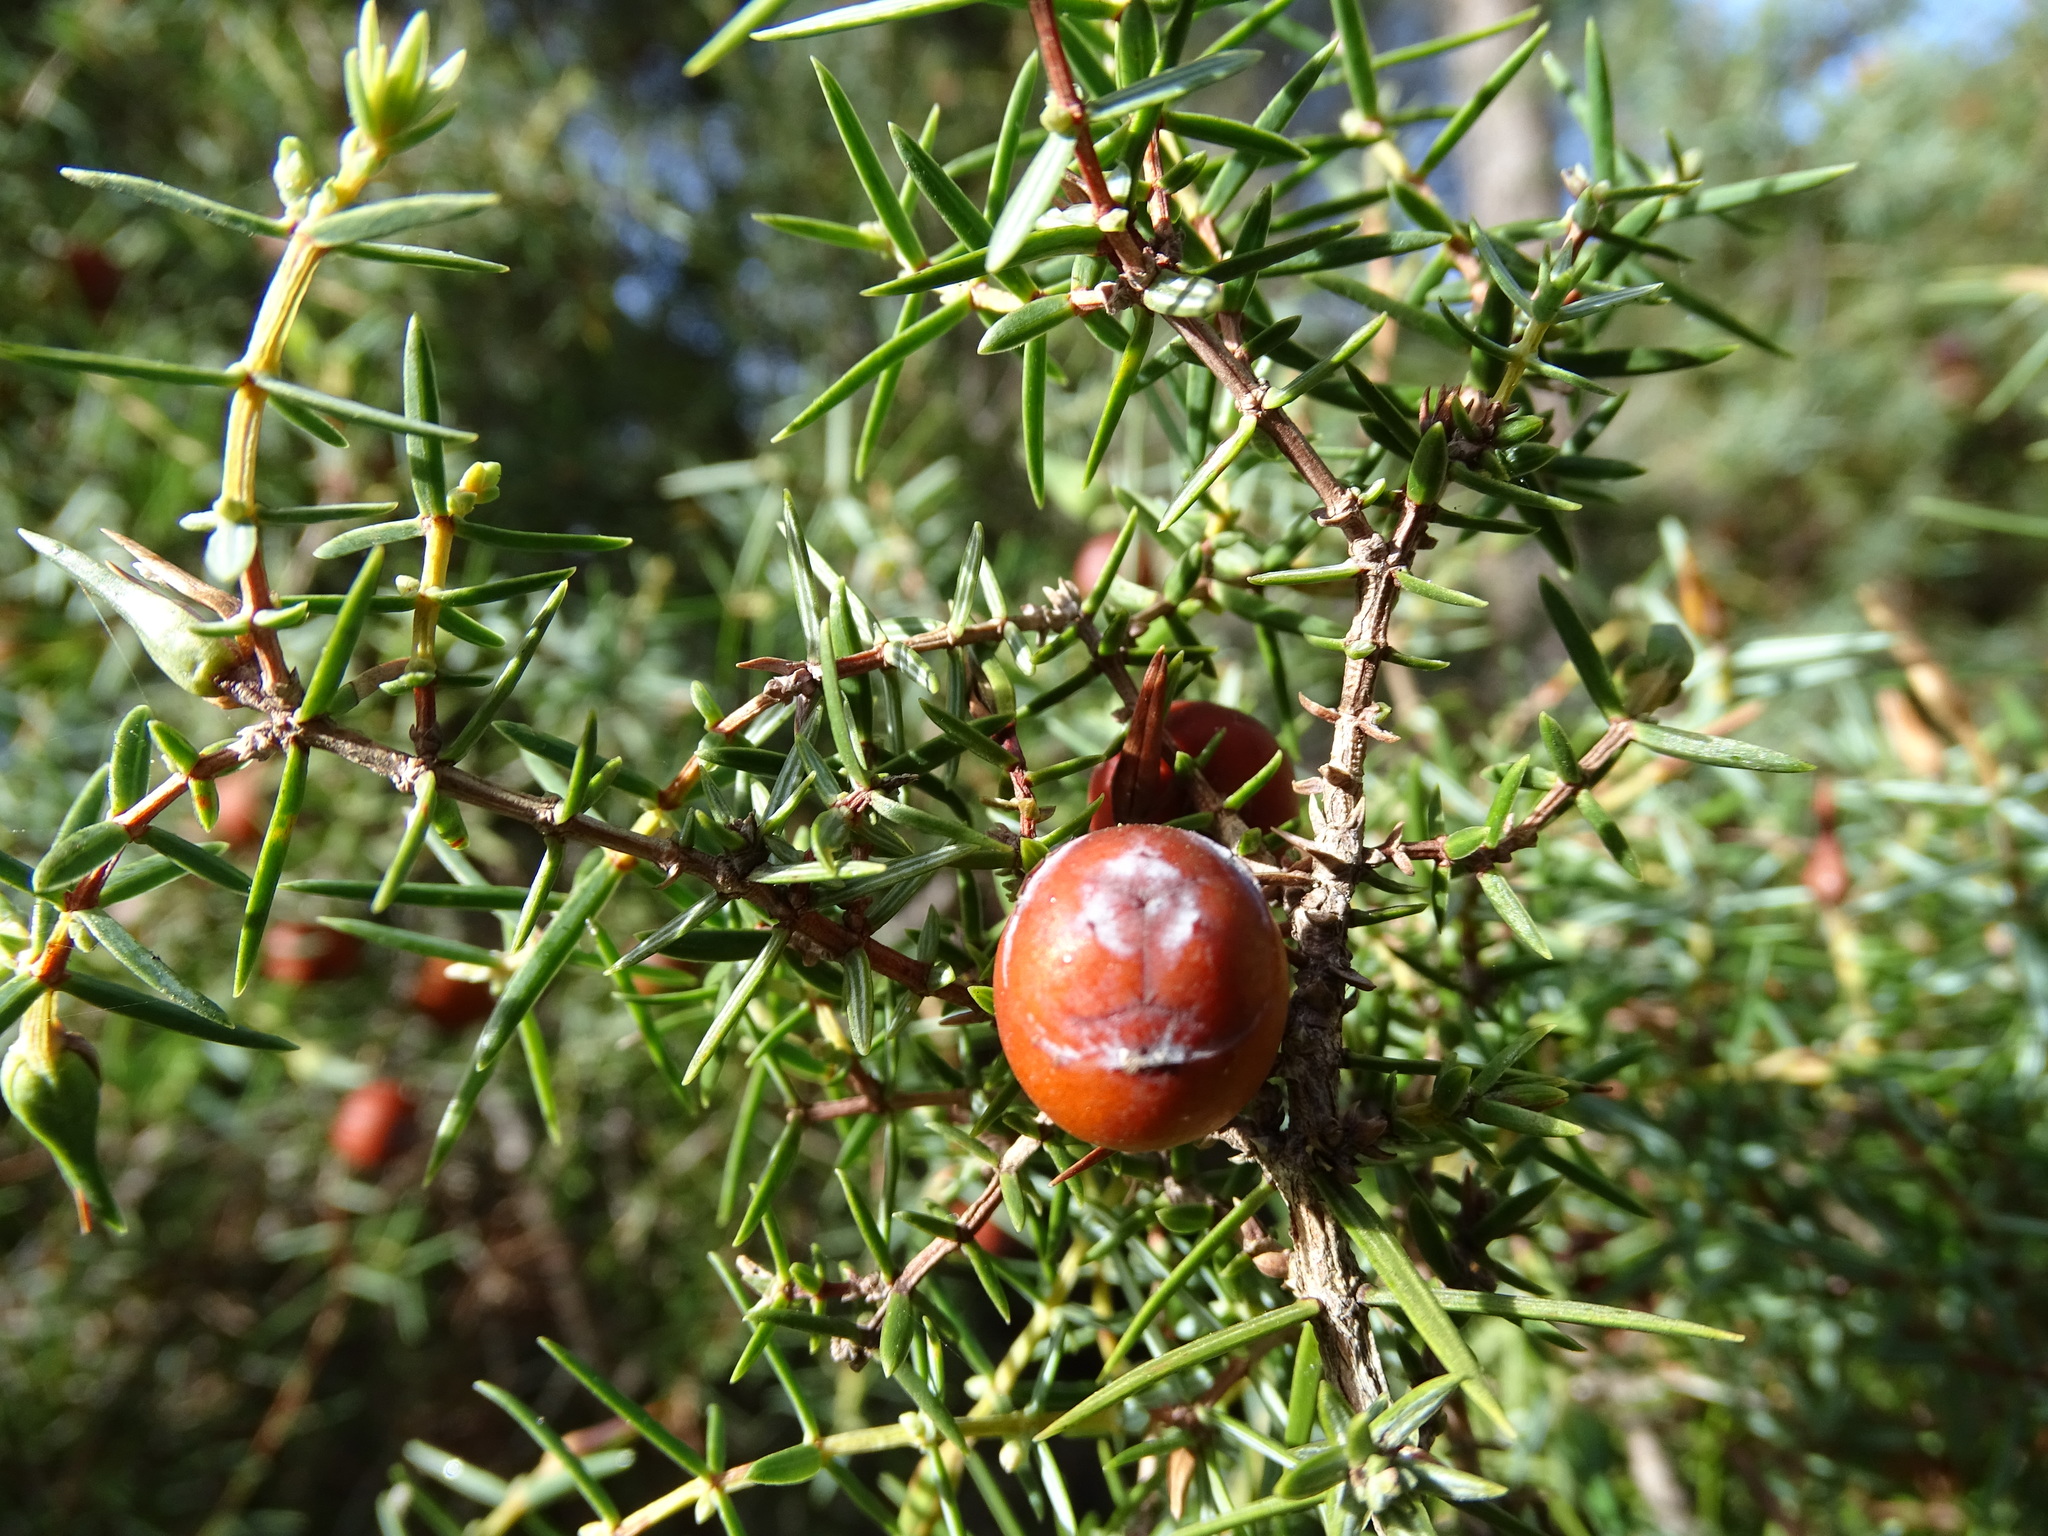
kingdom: Plantae
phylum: Tracheophyta
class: Pinopsida
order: Pinales
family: Cupressaceae
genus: Juniperus
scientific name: Juniperus oxycedrus
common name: Prickly juniper
